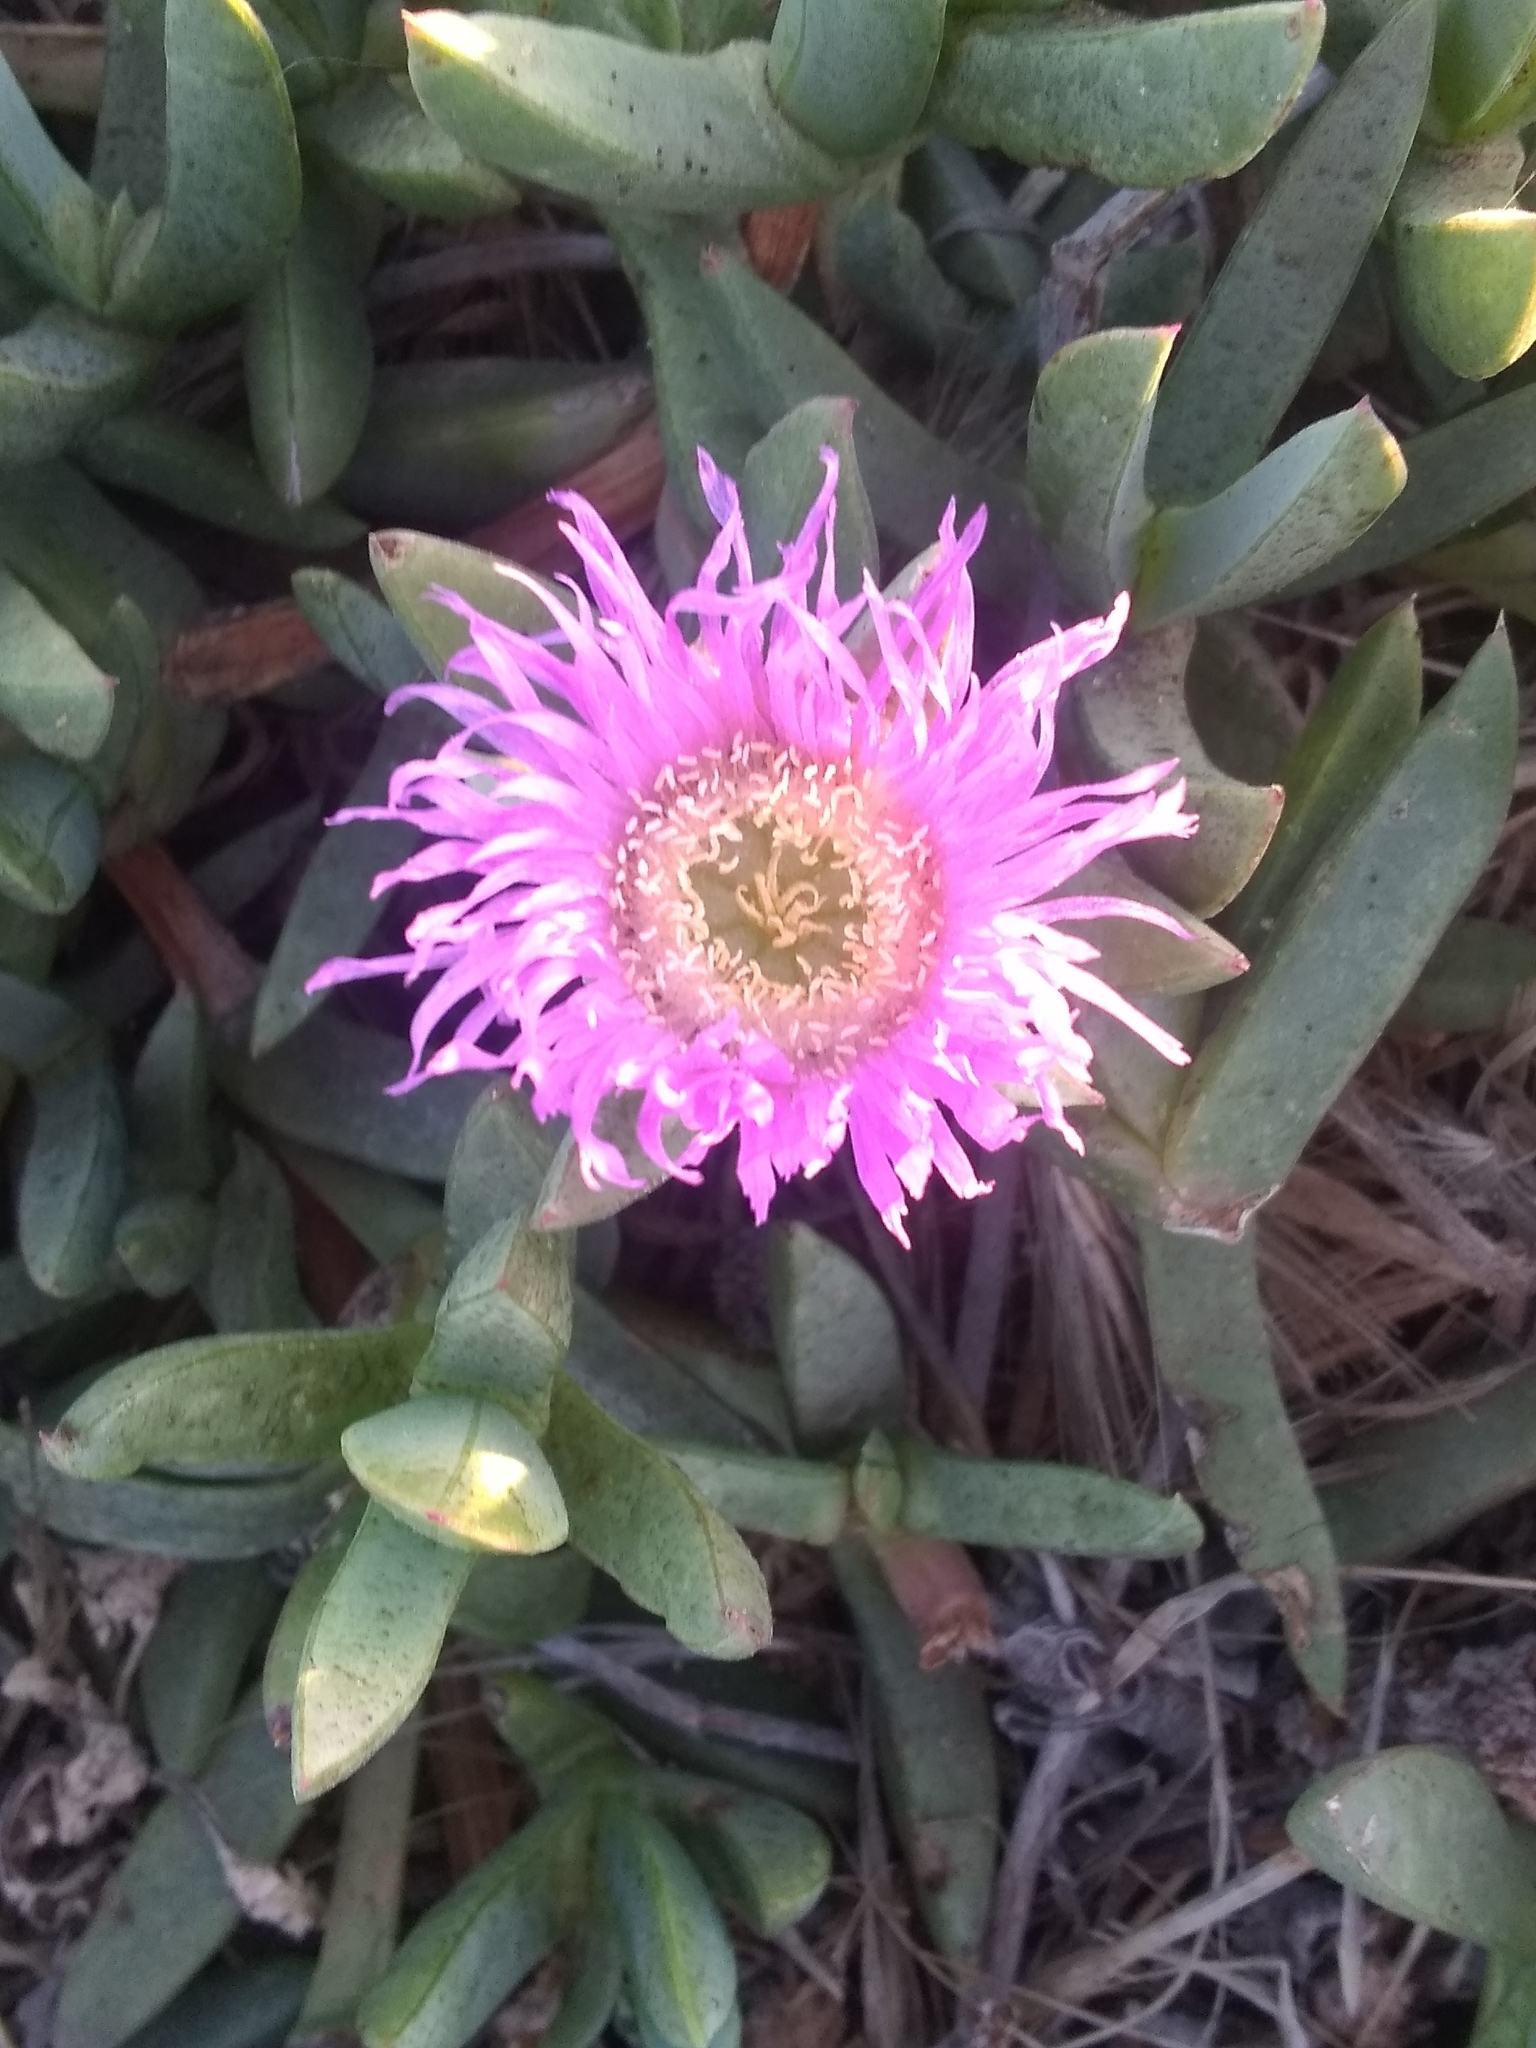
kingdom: Plantae
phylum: Tracheophyta
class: Magnoliopsida
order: Caryophyllales
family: Aizoaceae
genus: Carpobrotus
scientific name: Carpobrotus chilensis
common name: Sea fig
